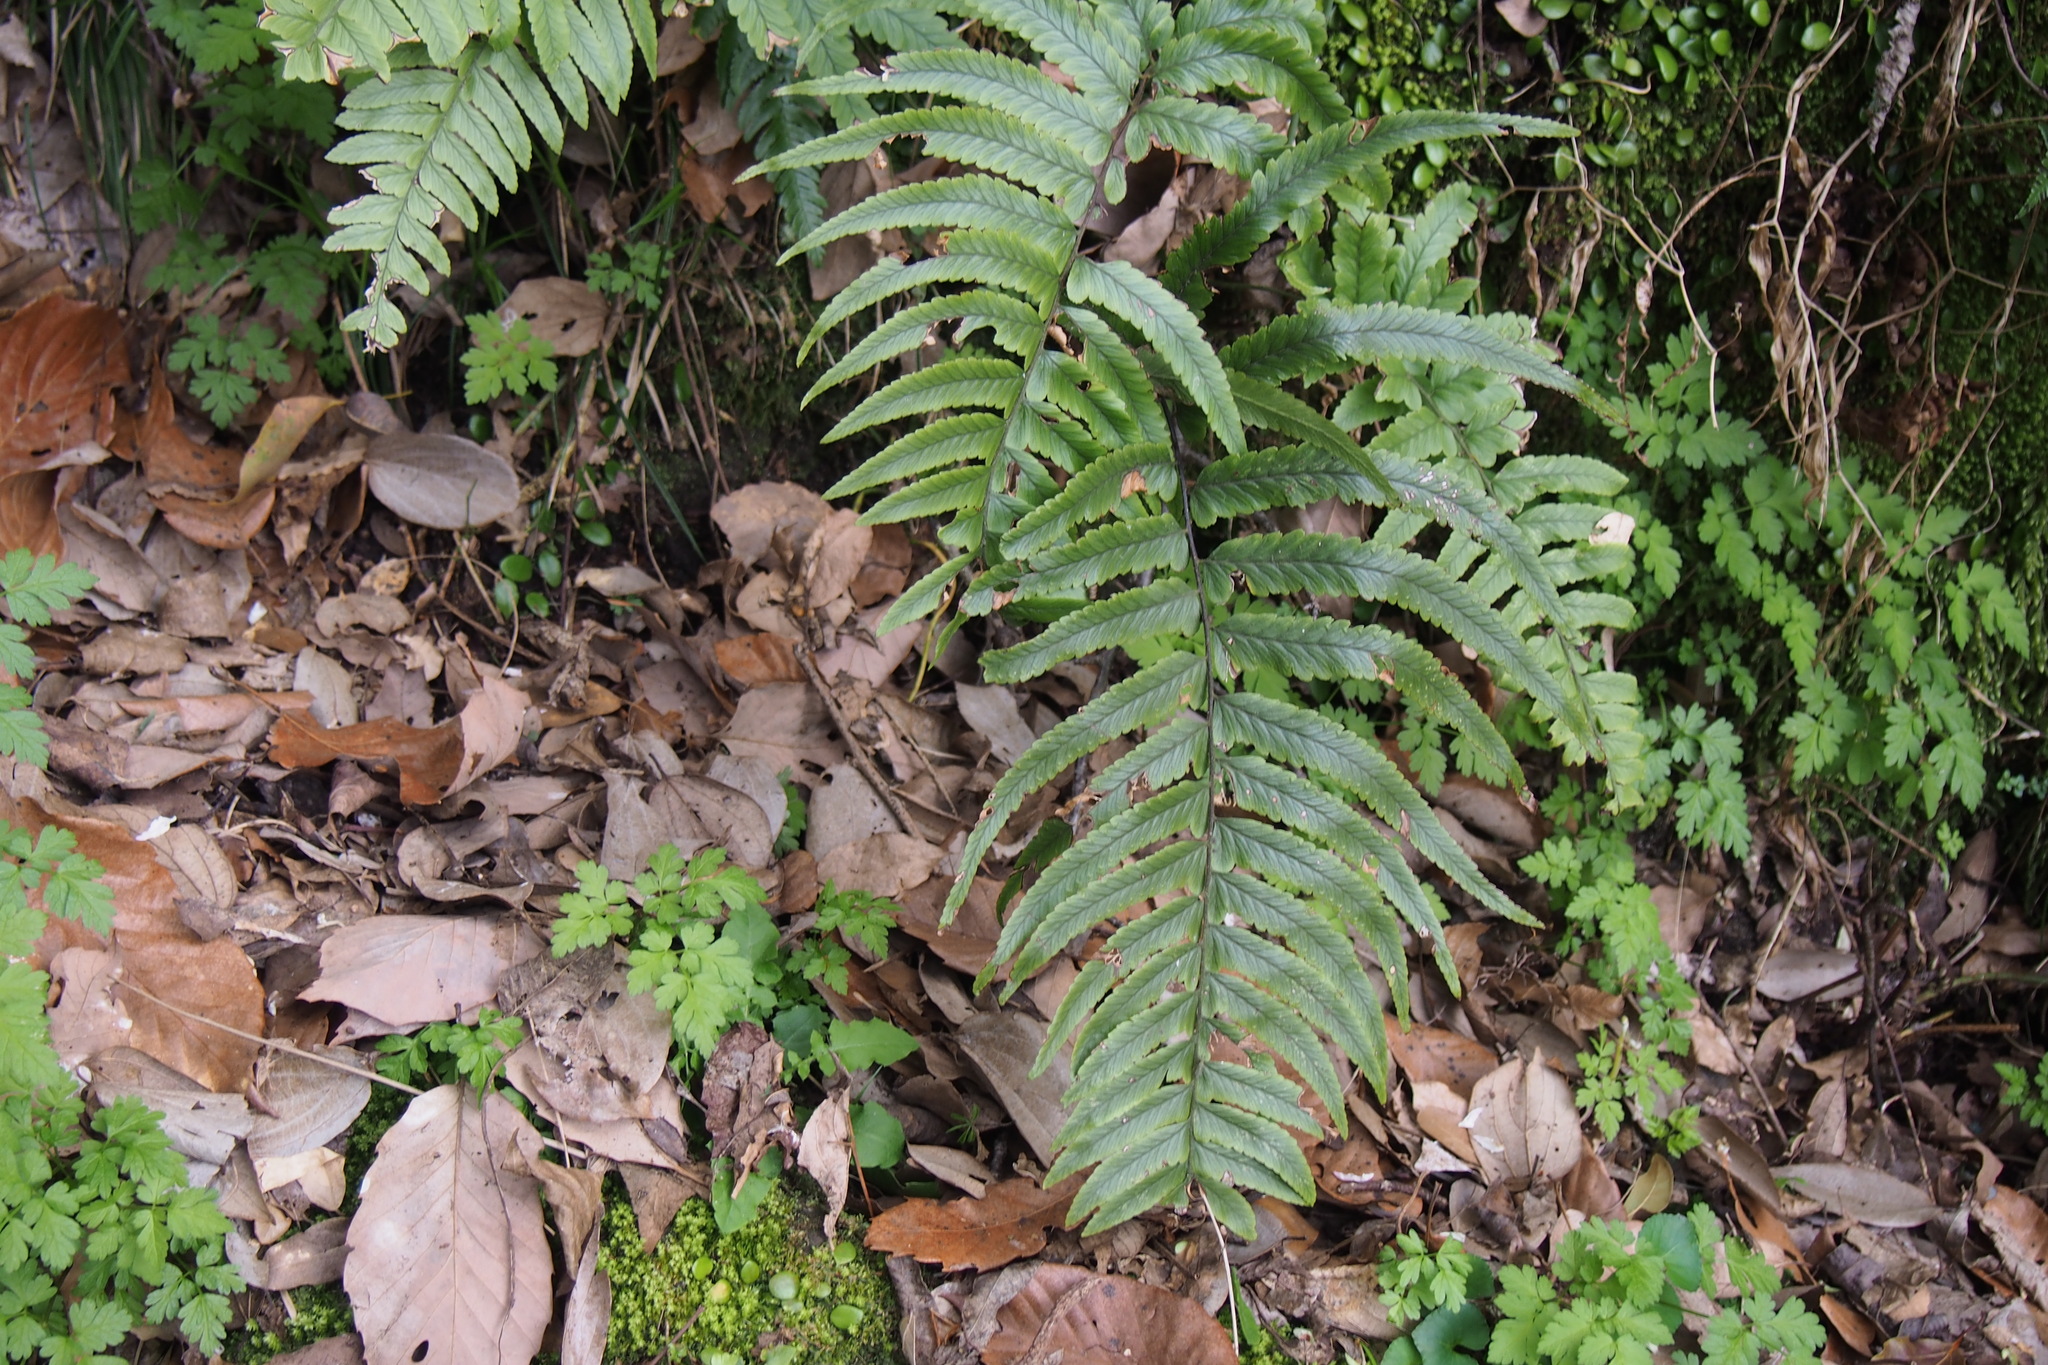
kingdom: Plantae
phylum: Tracheophyta
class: Polypodiopsida
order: Polypodiales
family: Dennstaedtiaceae
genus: Microlepia
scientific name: Microlepia marginata
